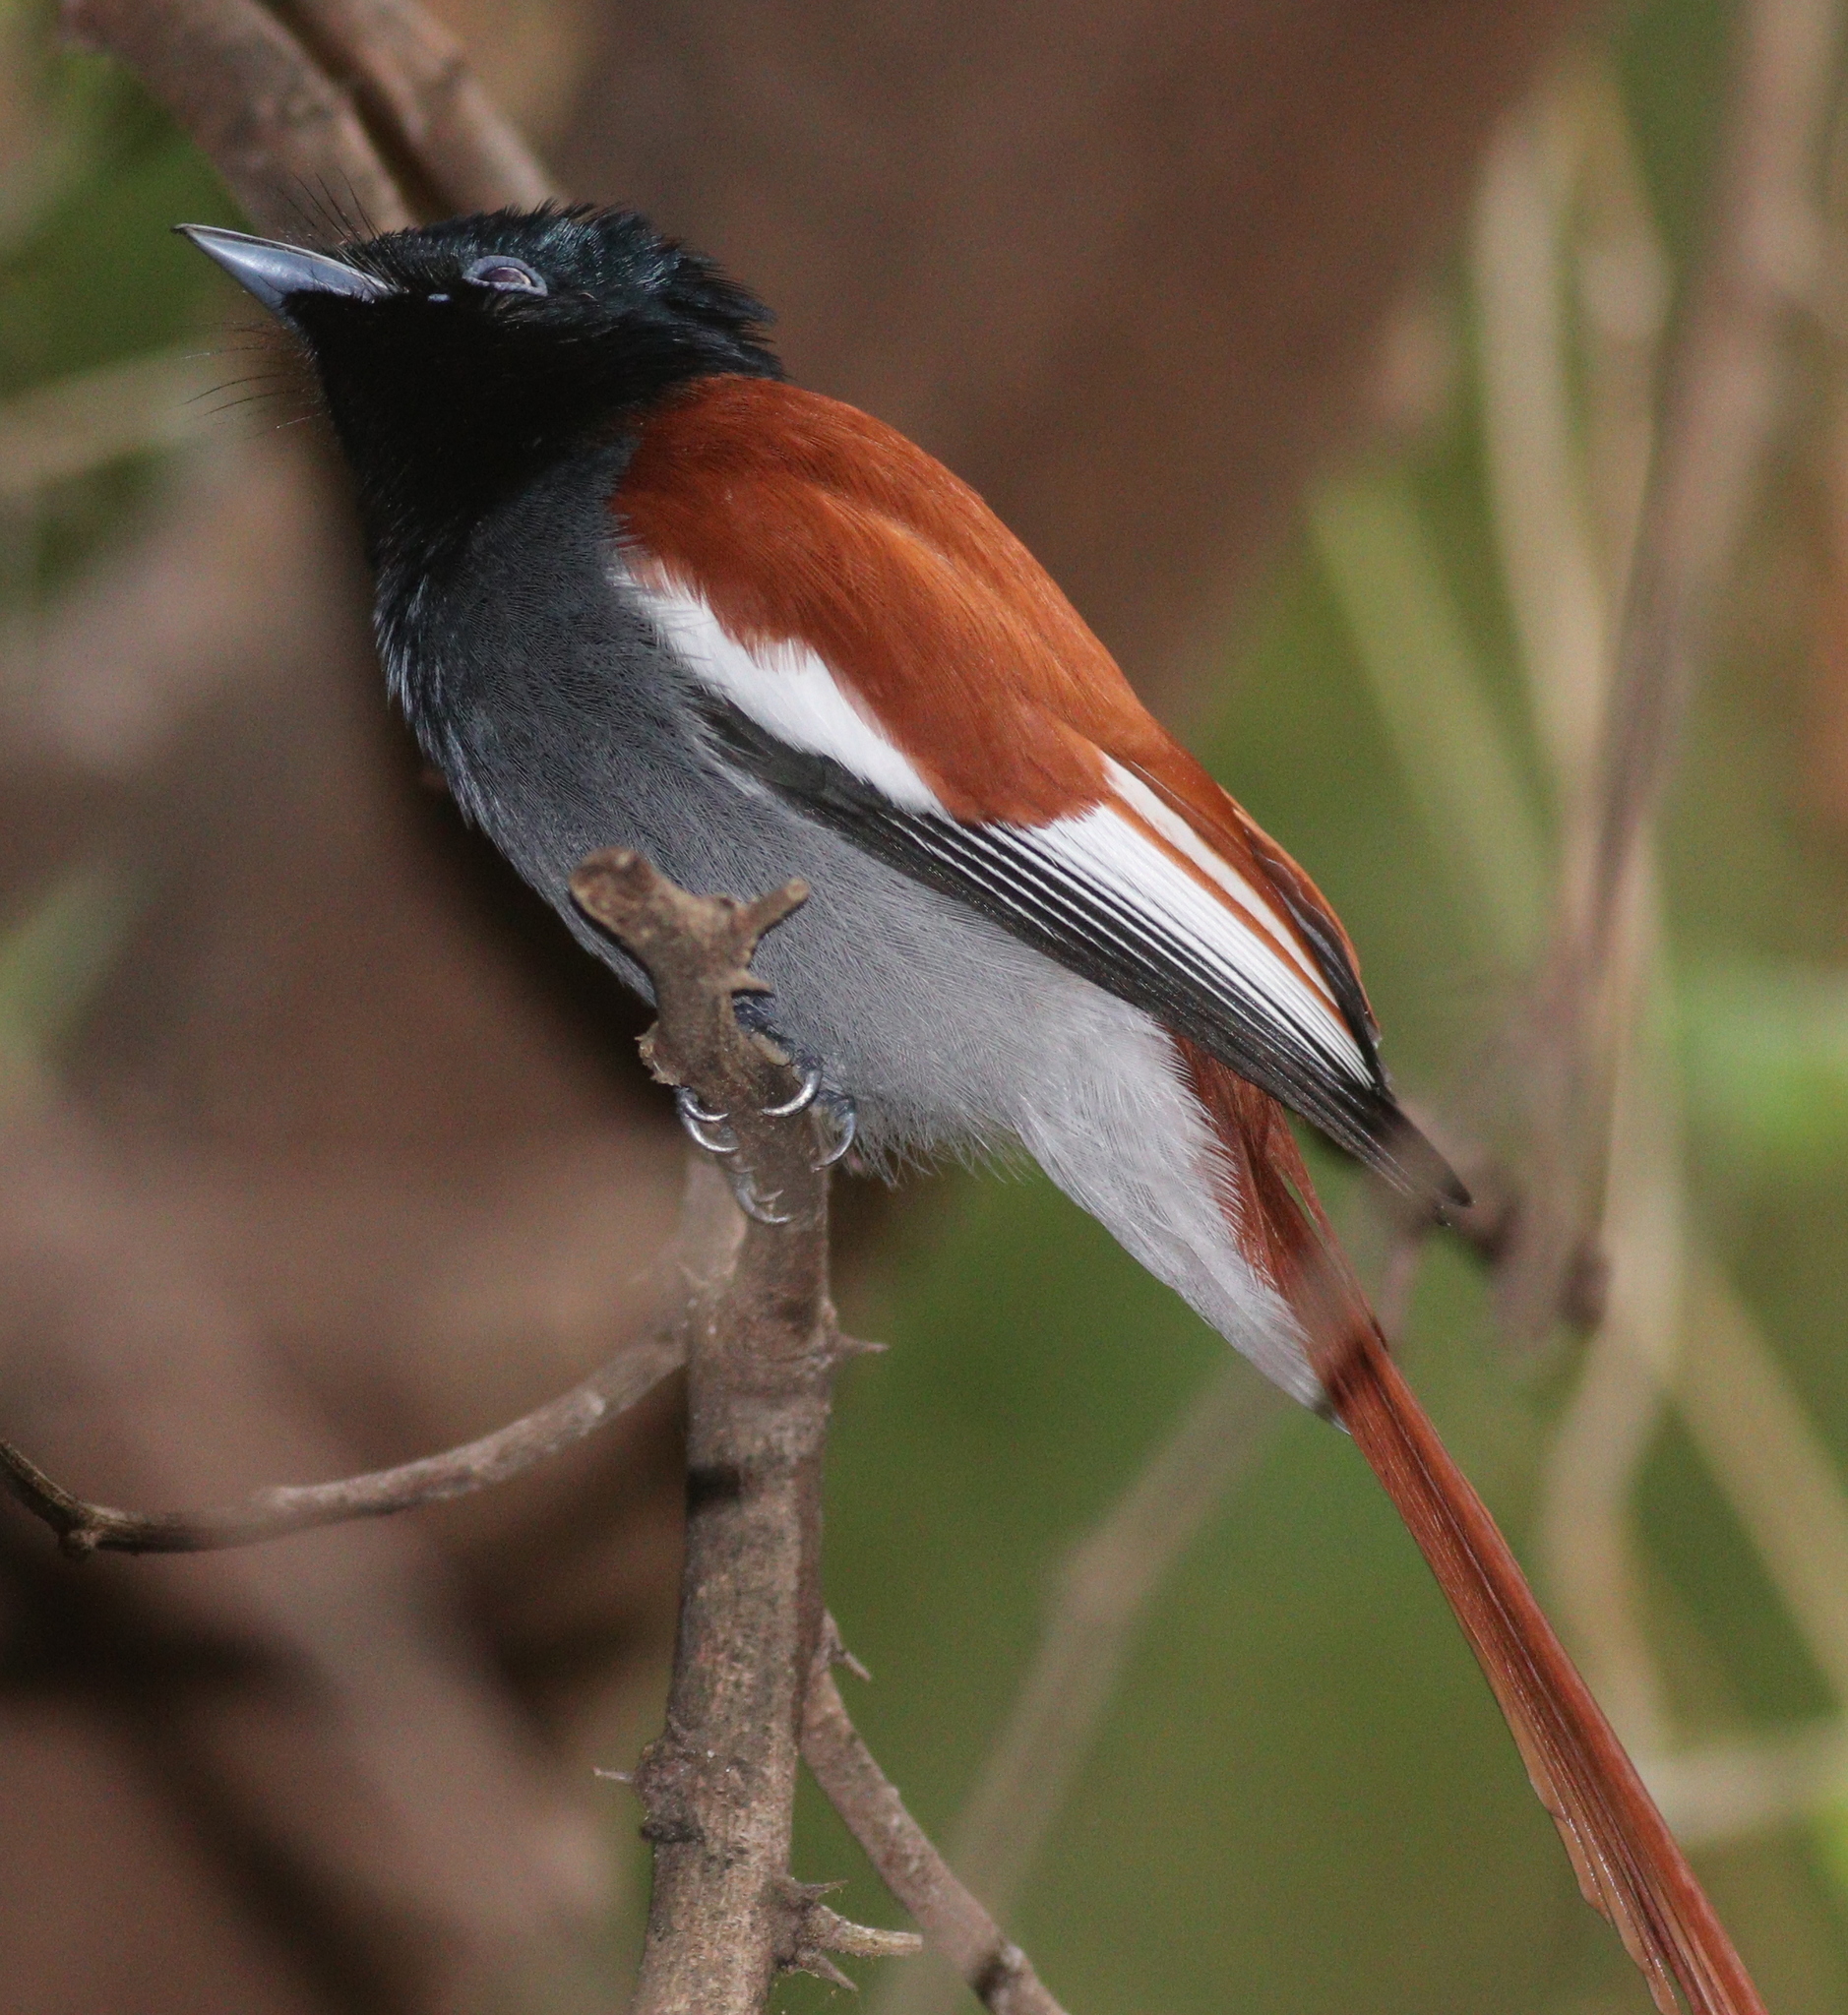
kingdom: Animalia
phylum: Chordata
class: Aves
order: Passeriformes
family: Monarchidae
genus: Terpsiphone
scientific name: Terpsiphone viridis
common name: African paradise flycatcher
